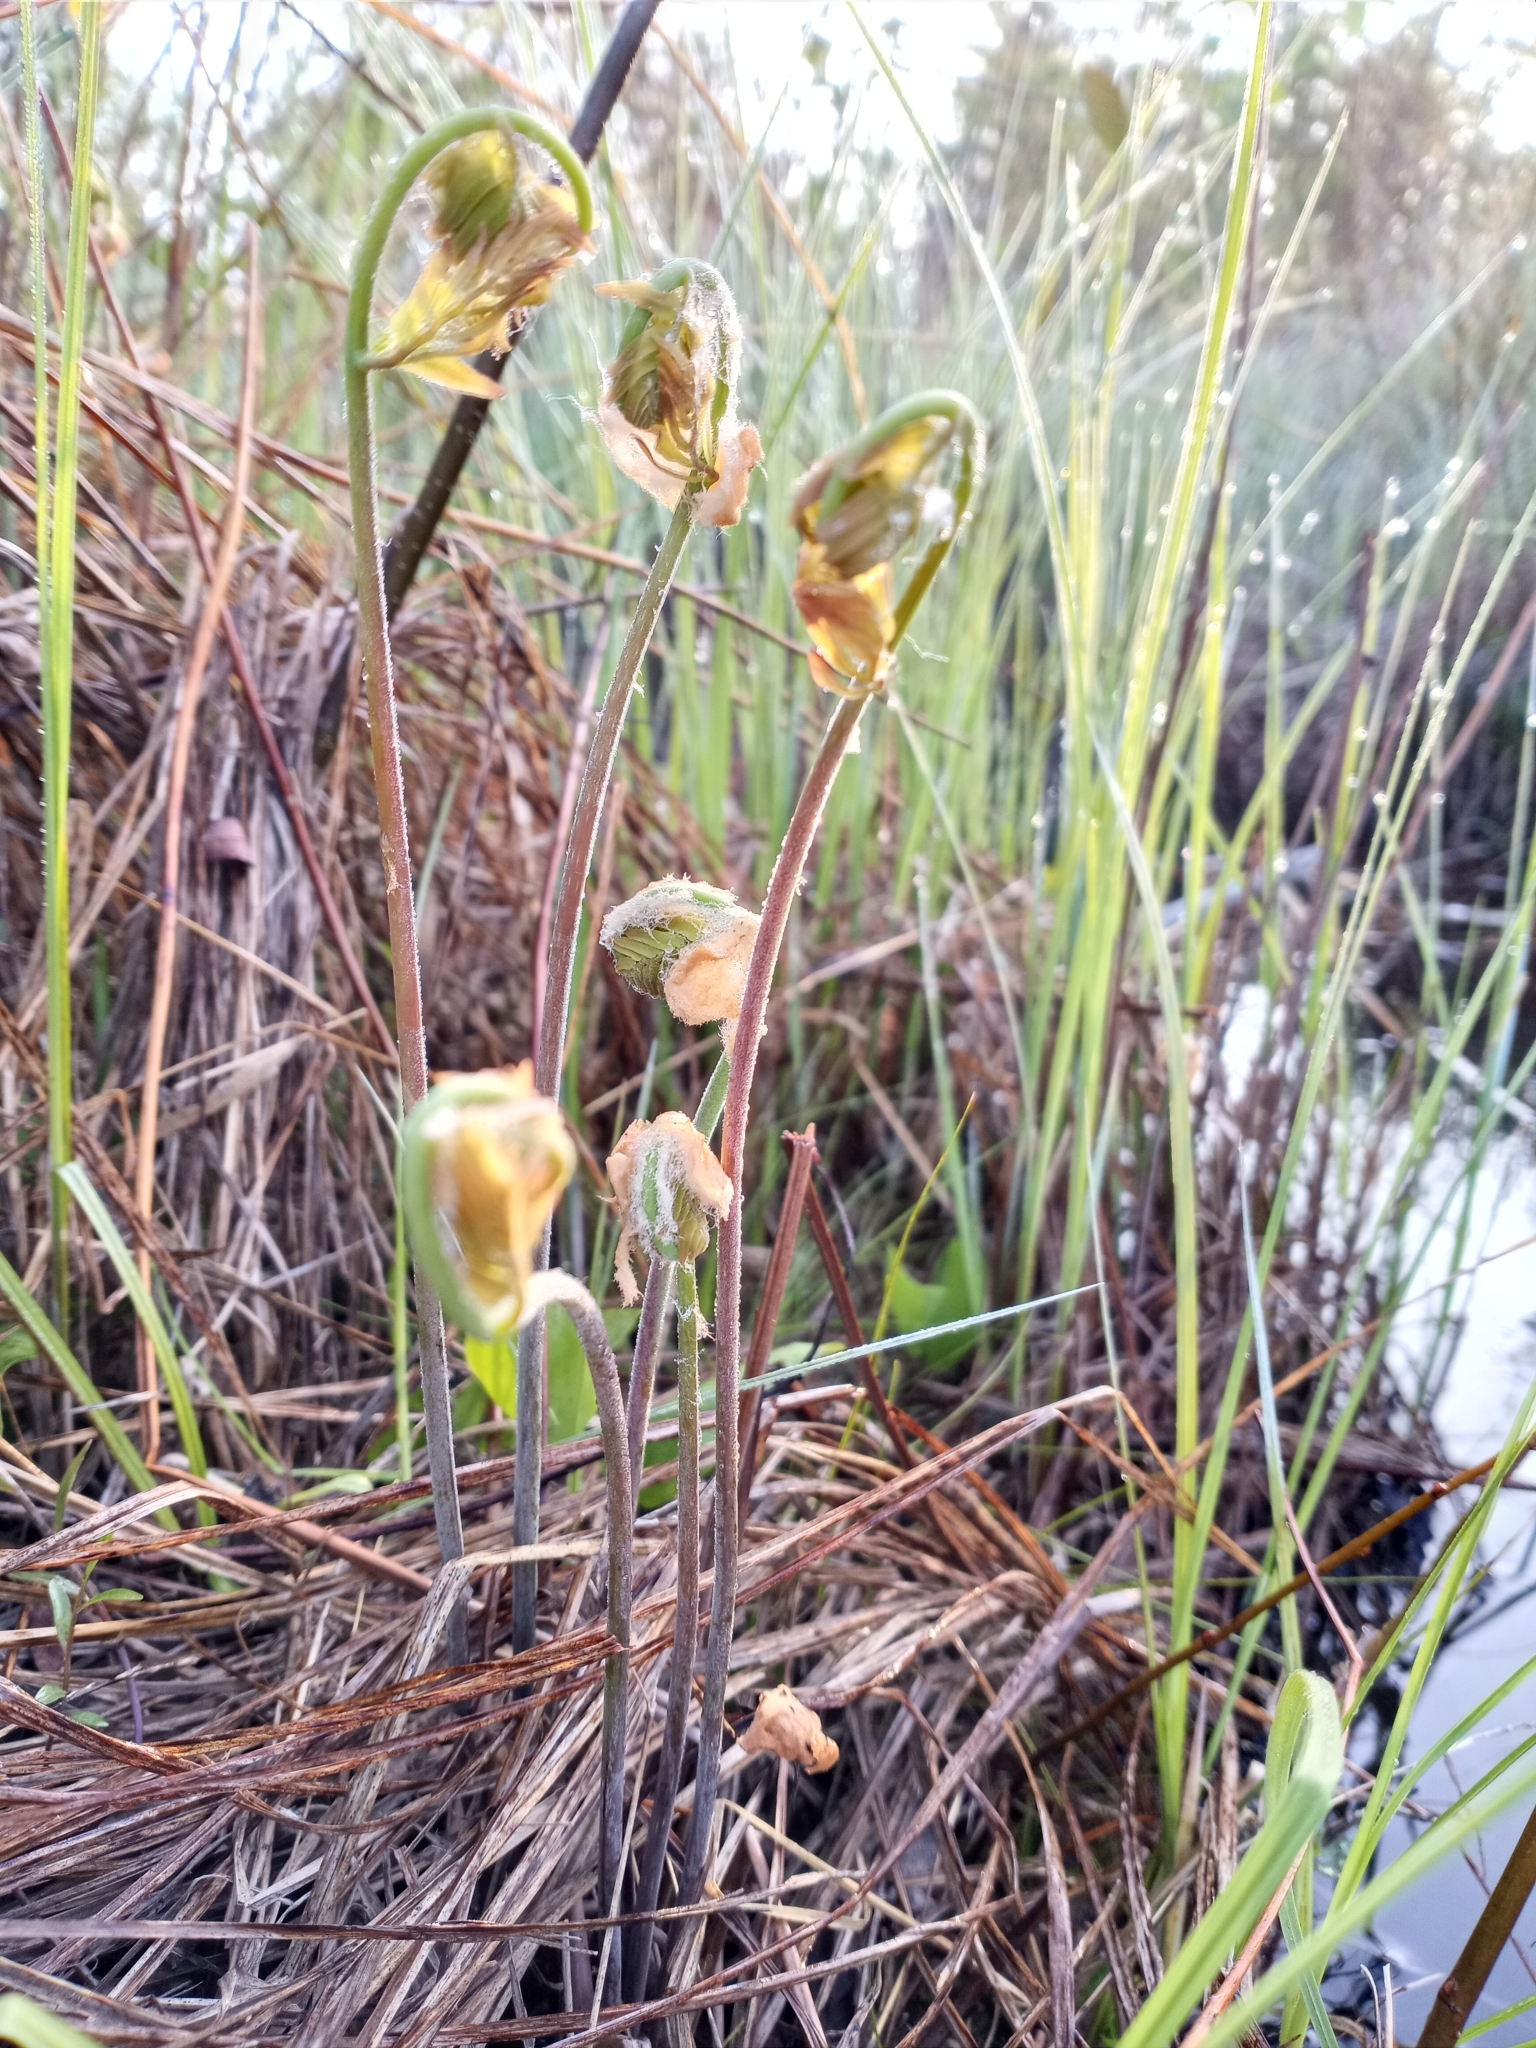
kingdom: Plantae
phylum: Tracheophyta
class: Polypodiopsida
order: Osmundales
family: Osmundaceae
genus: Osmunda
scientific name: Osmunda spectabilis
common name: American royal fern
